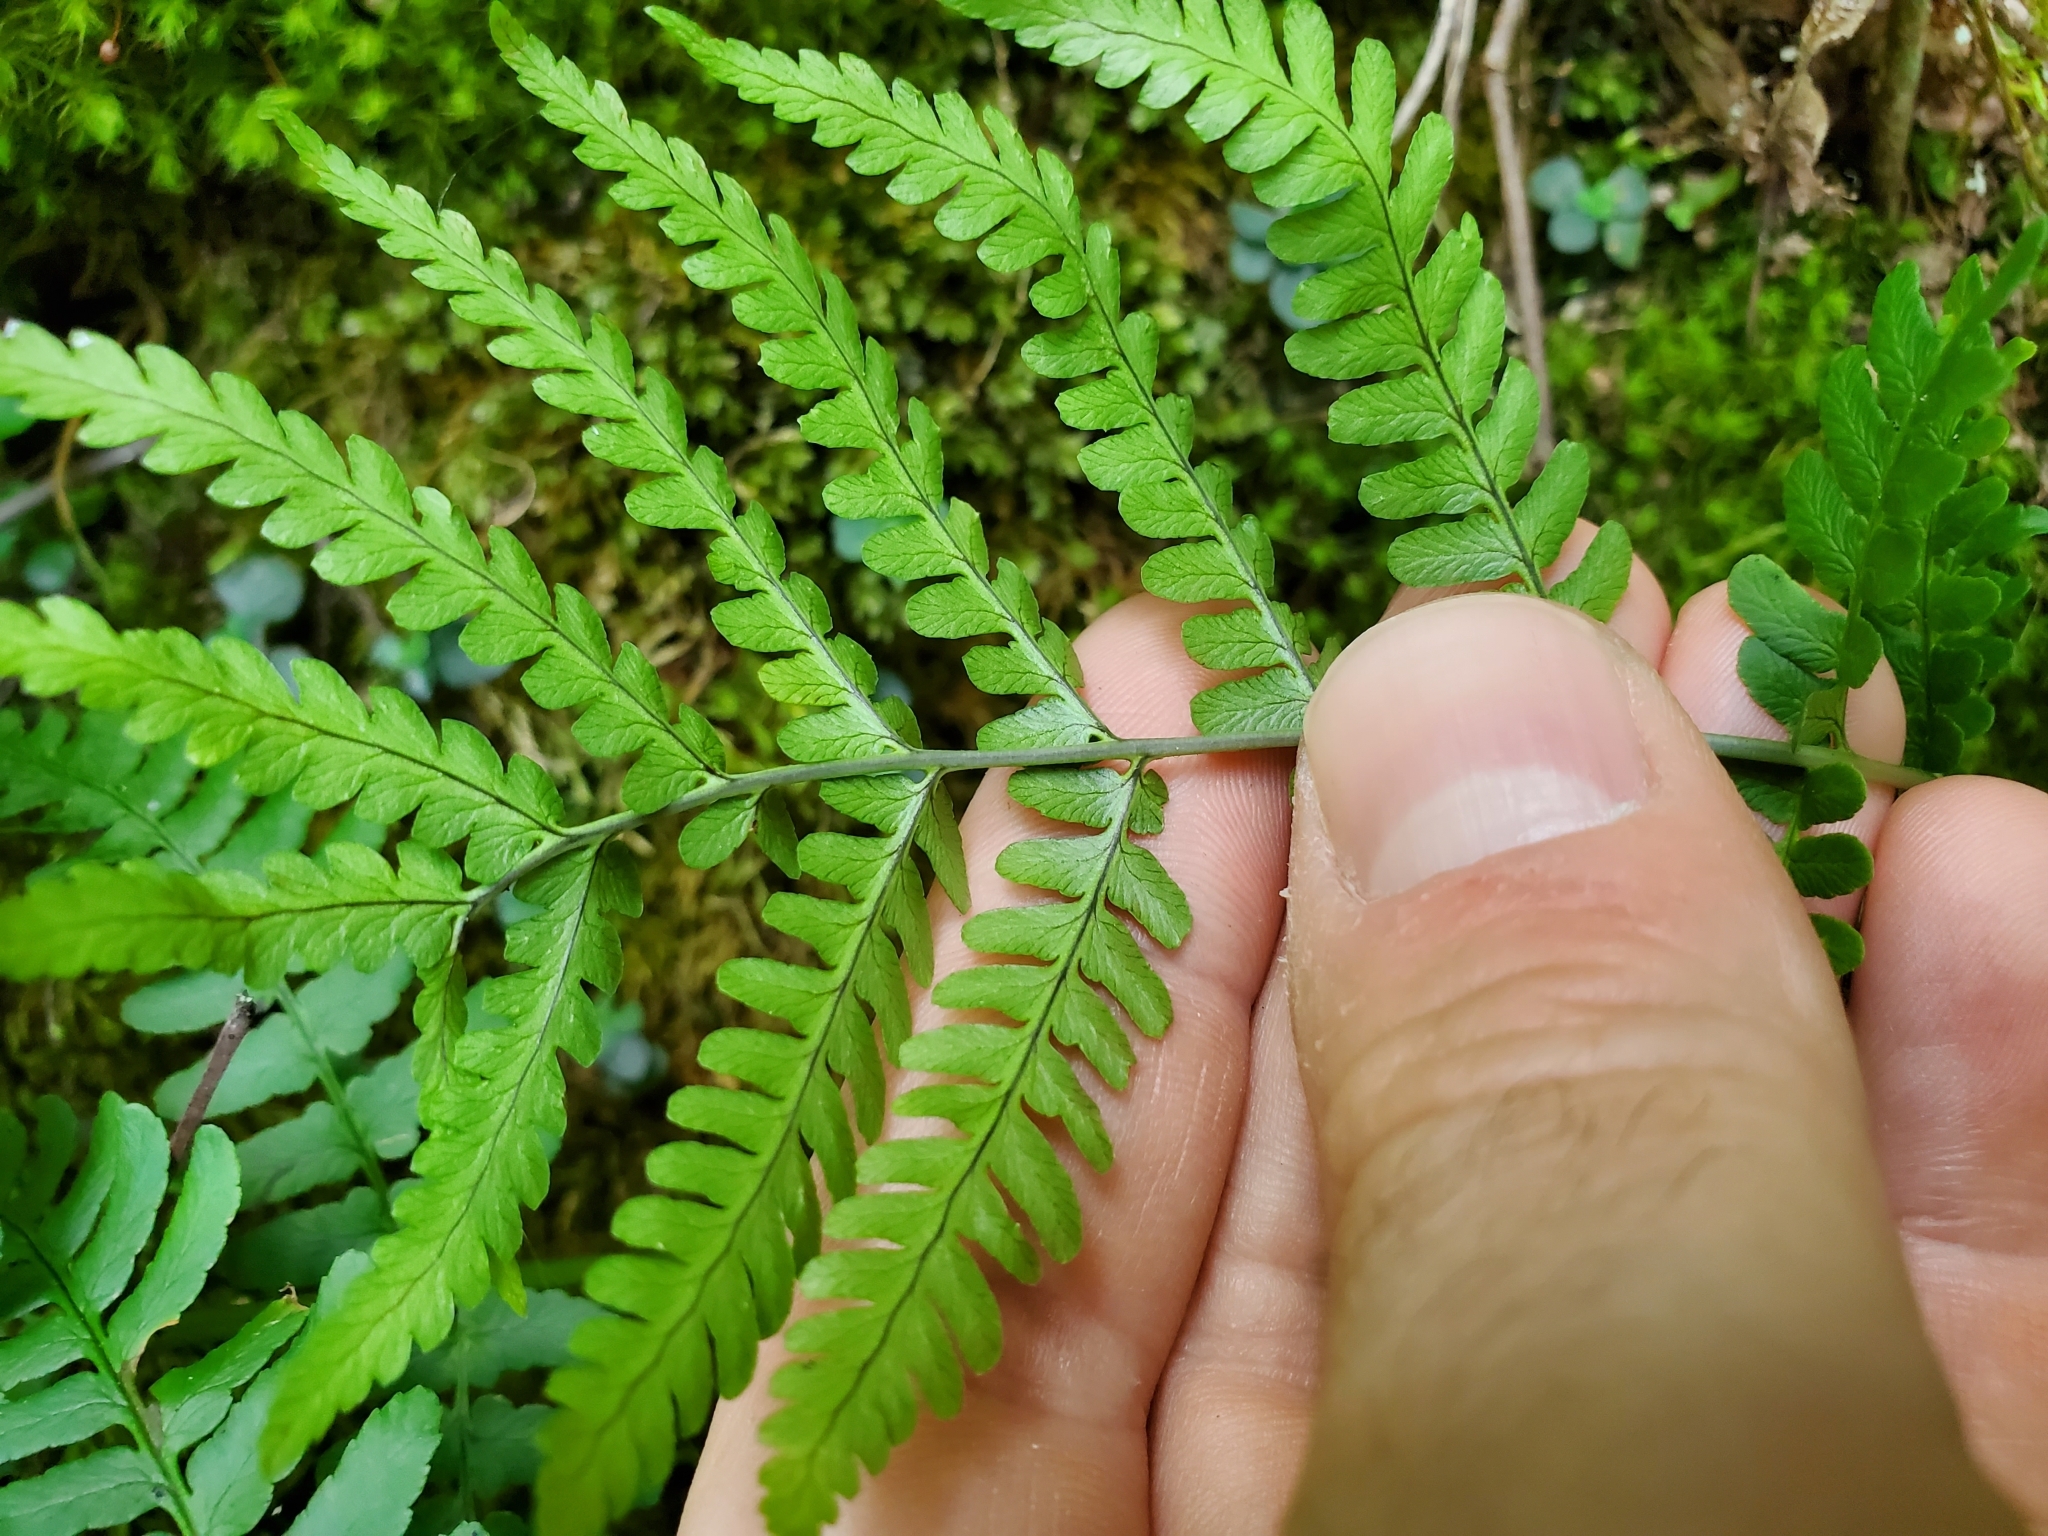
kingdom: Plantae
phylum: Tracheophyta
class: Polypodiopsida
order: Polypodiales
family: Dryopteridaceae
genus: Dryopteris
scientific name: Dryopteris marginalis
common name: Marginal wood fern
